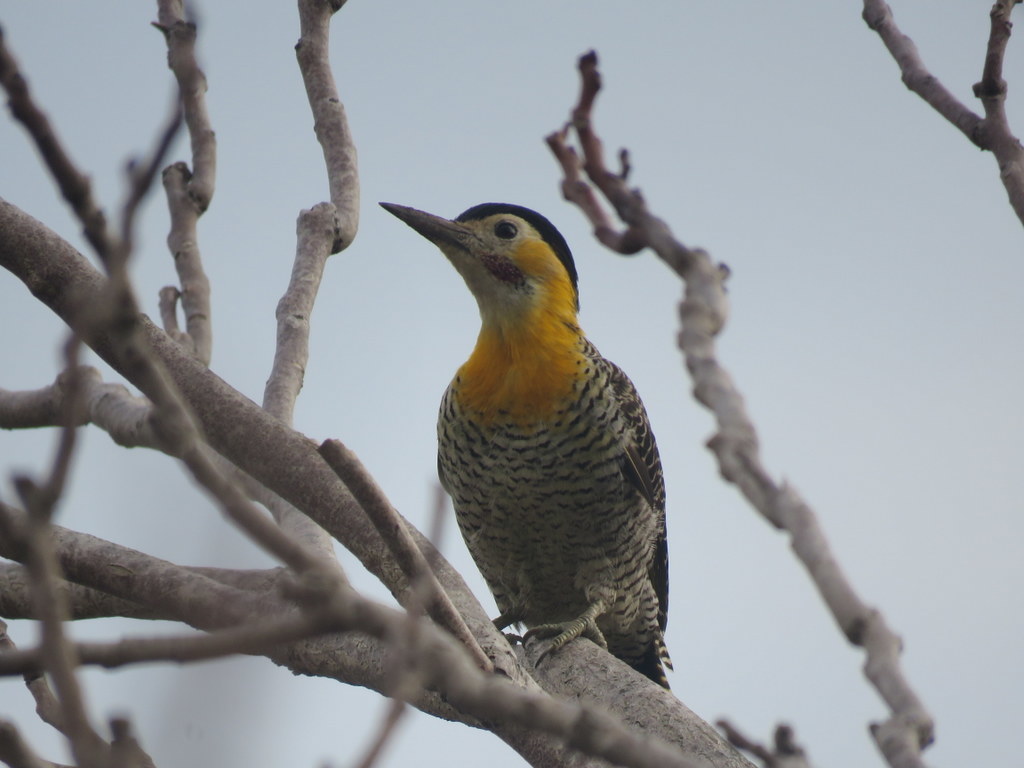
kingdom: Animalia
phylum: Chordata
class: Aves
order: Piciformes
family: Picidae
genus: Colaptes
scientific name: Colaptes campestris
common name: Campo flicker
